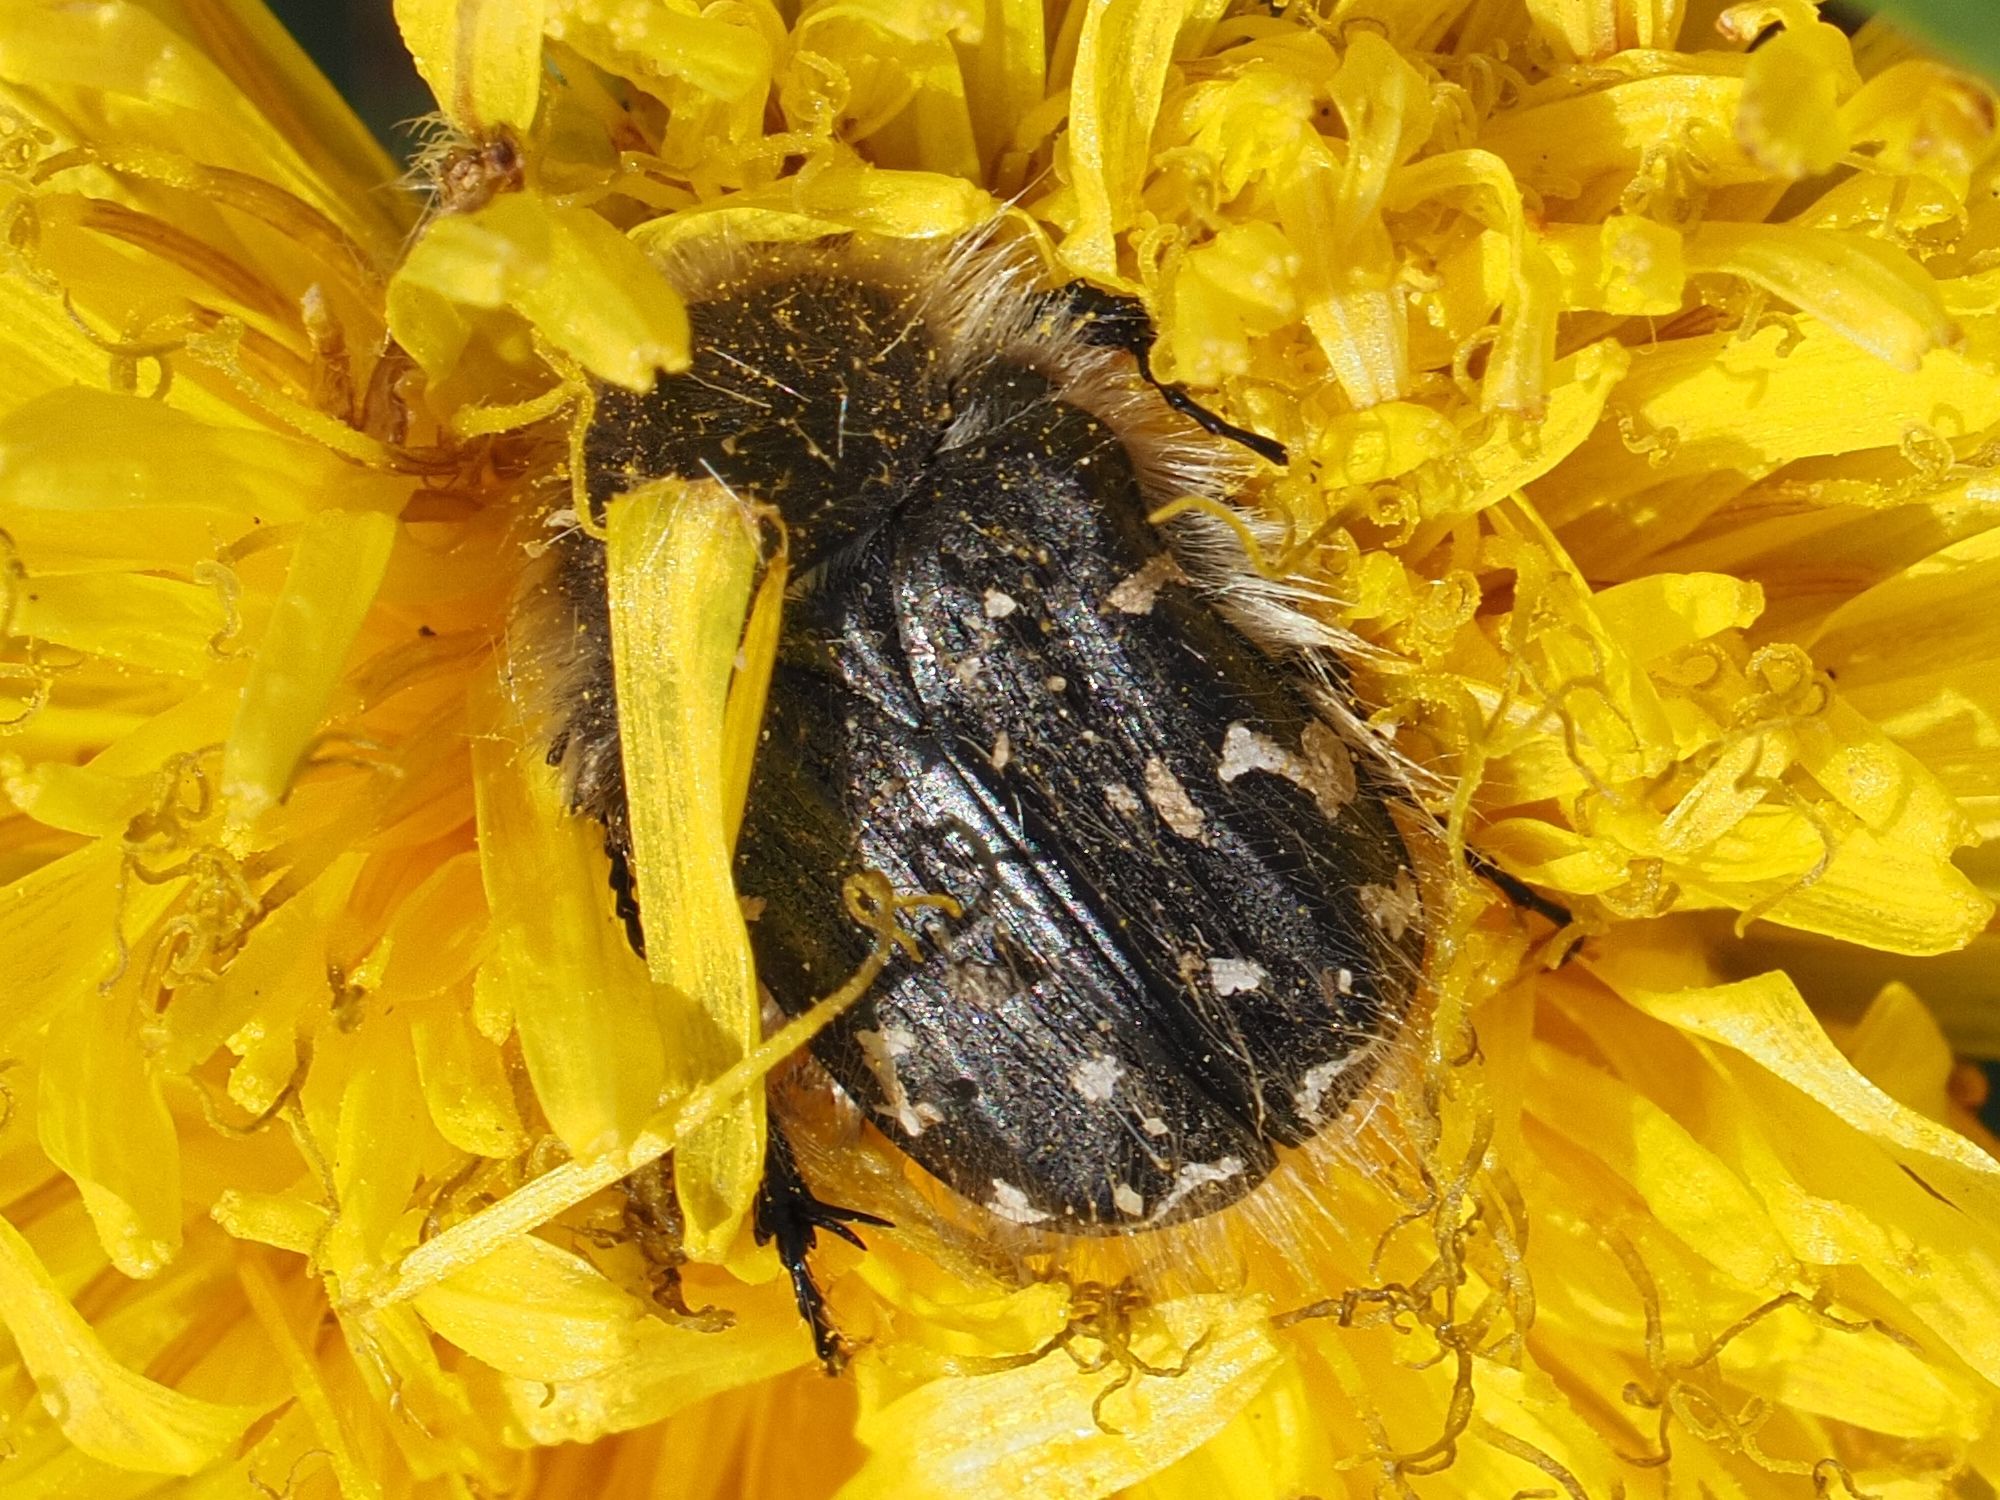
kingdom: Animalia
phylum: Arthropoda
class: Insecta
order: Coleoptera
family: Scarabaeidae
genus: Tropinota
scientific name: Tropinota hirta
